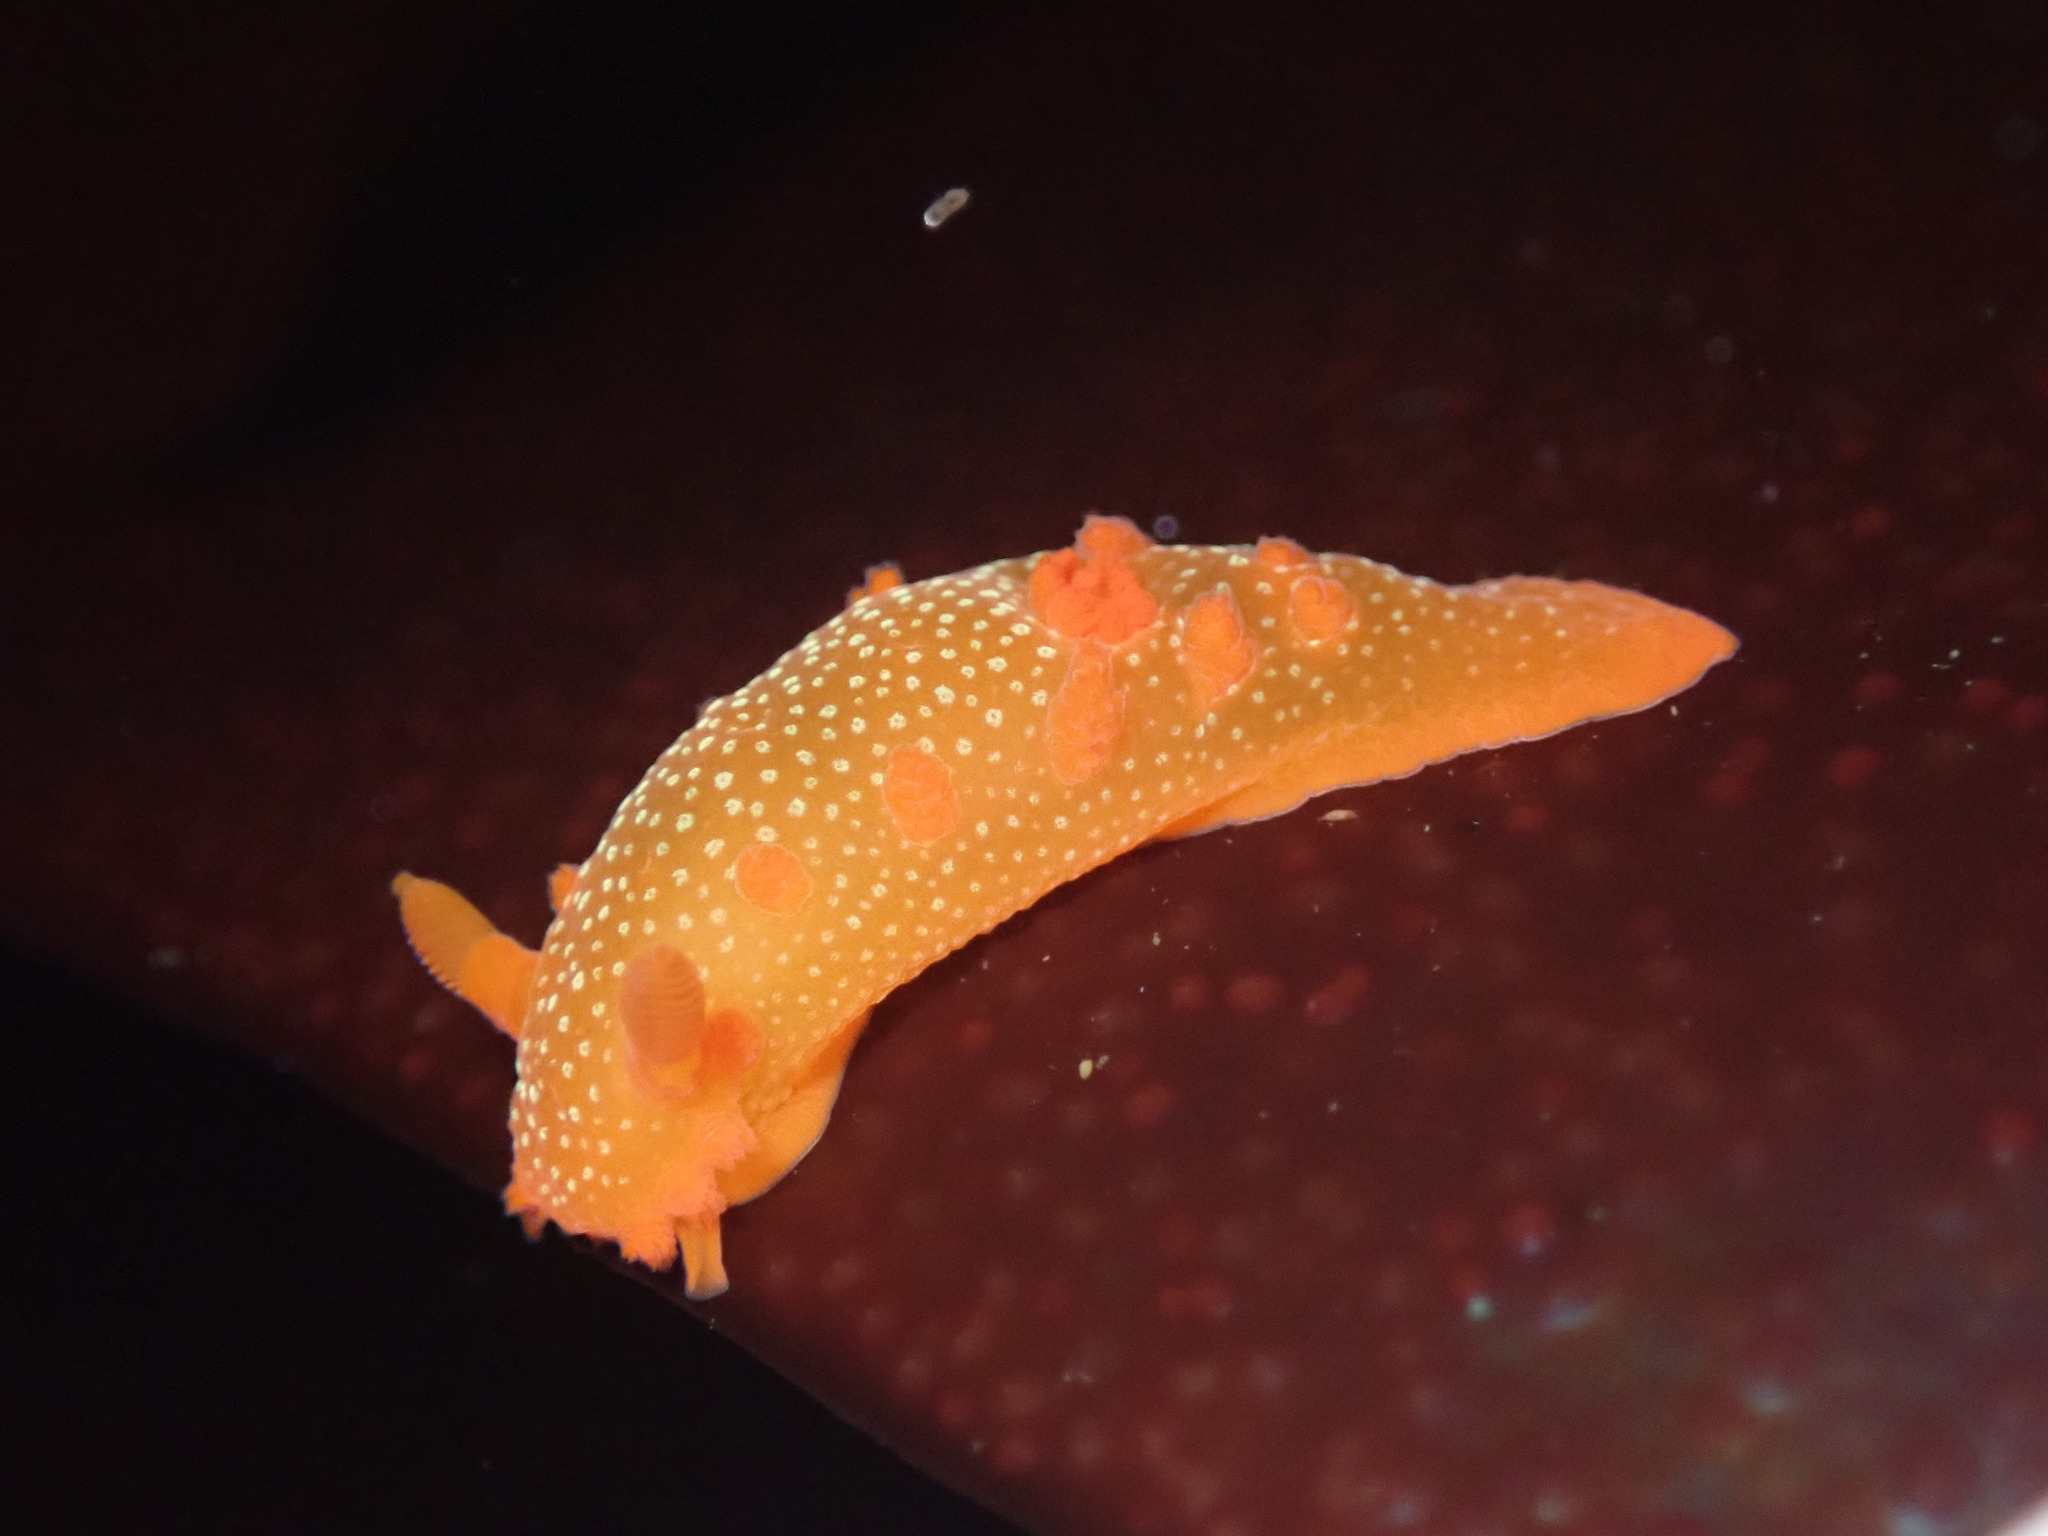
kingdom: Animalia
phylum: Mollusca
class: Gastropoda
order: Nudibranchia
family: Polyceridae
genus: Triopha
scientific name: Triopha maculata
